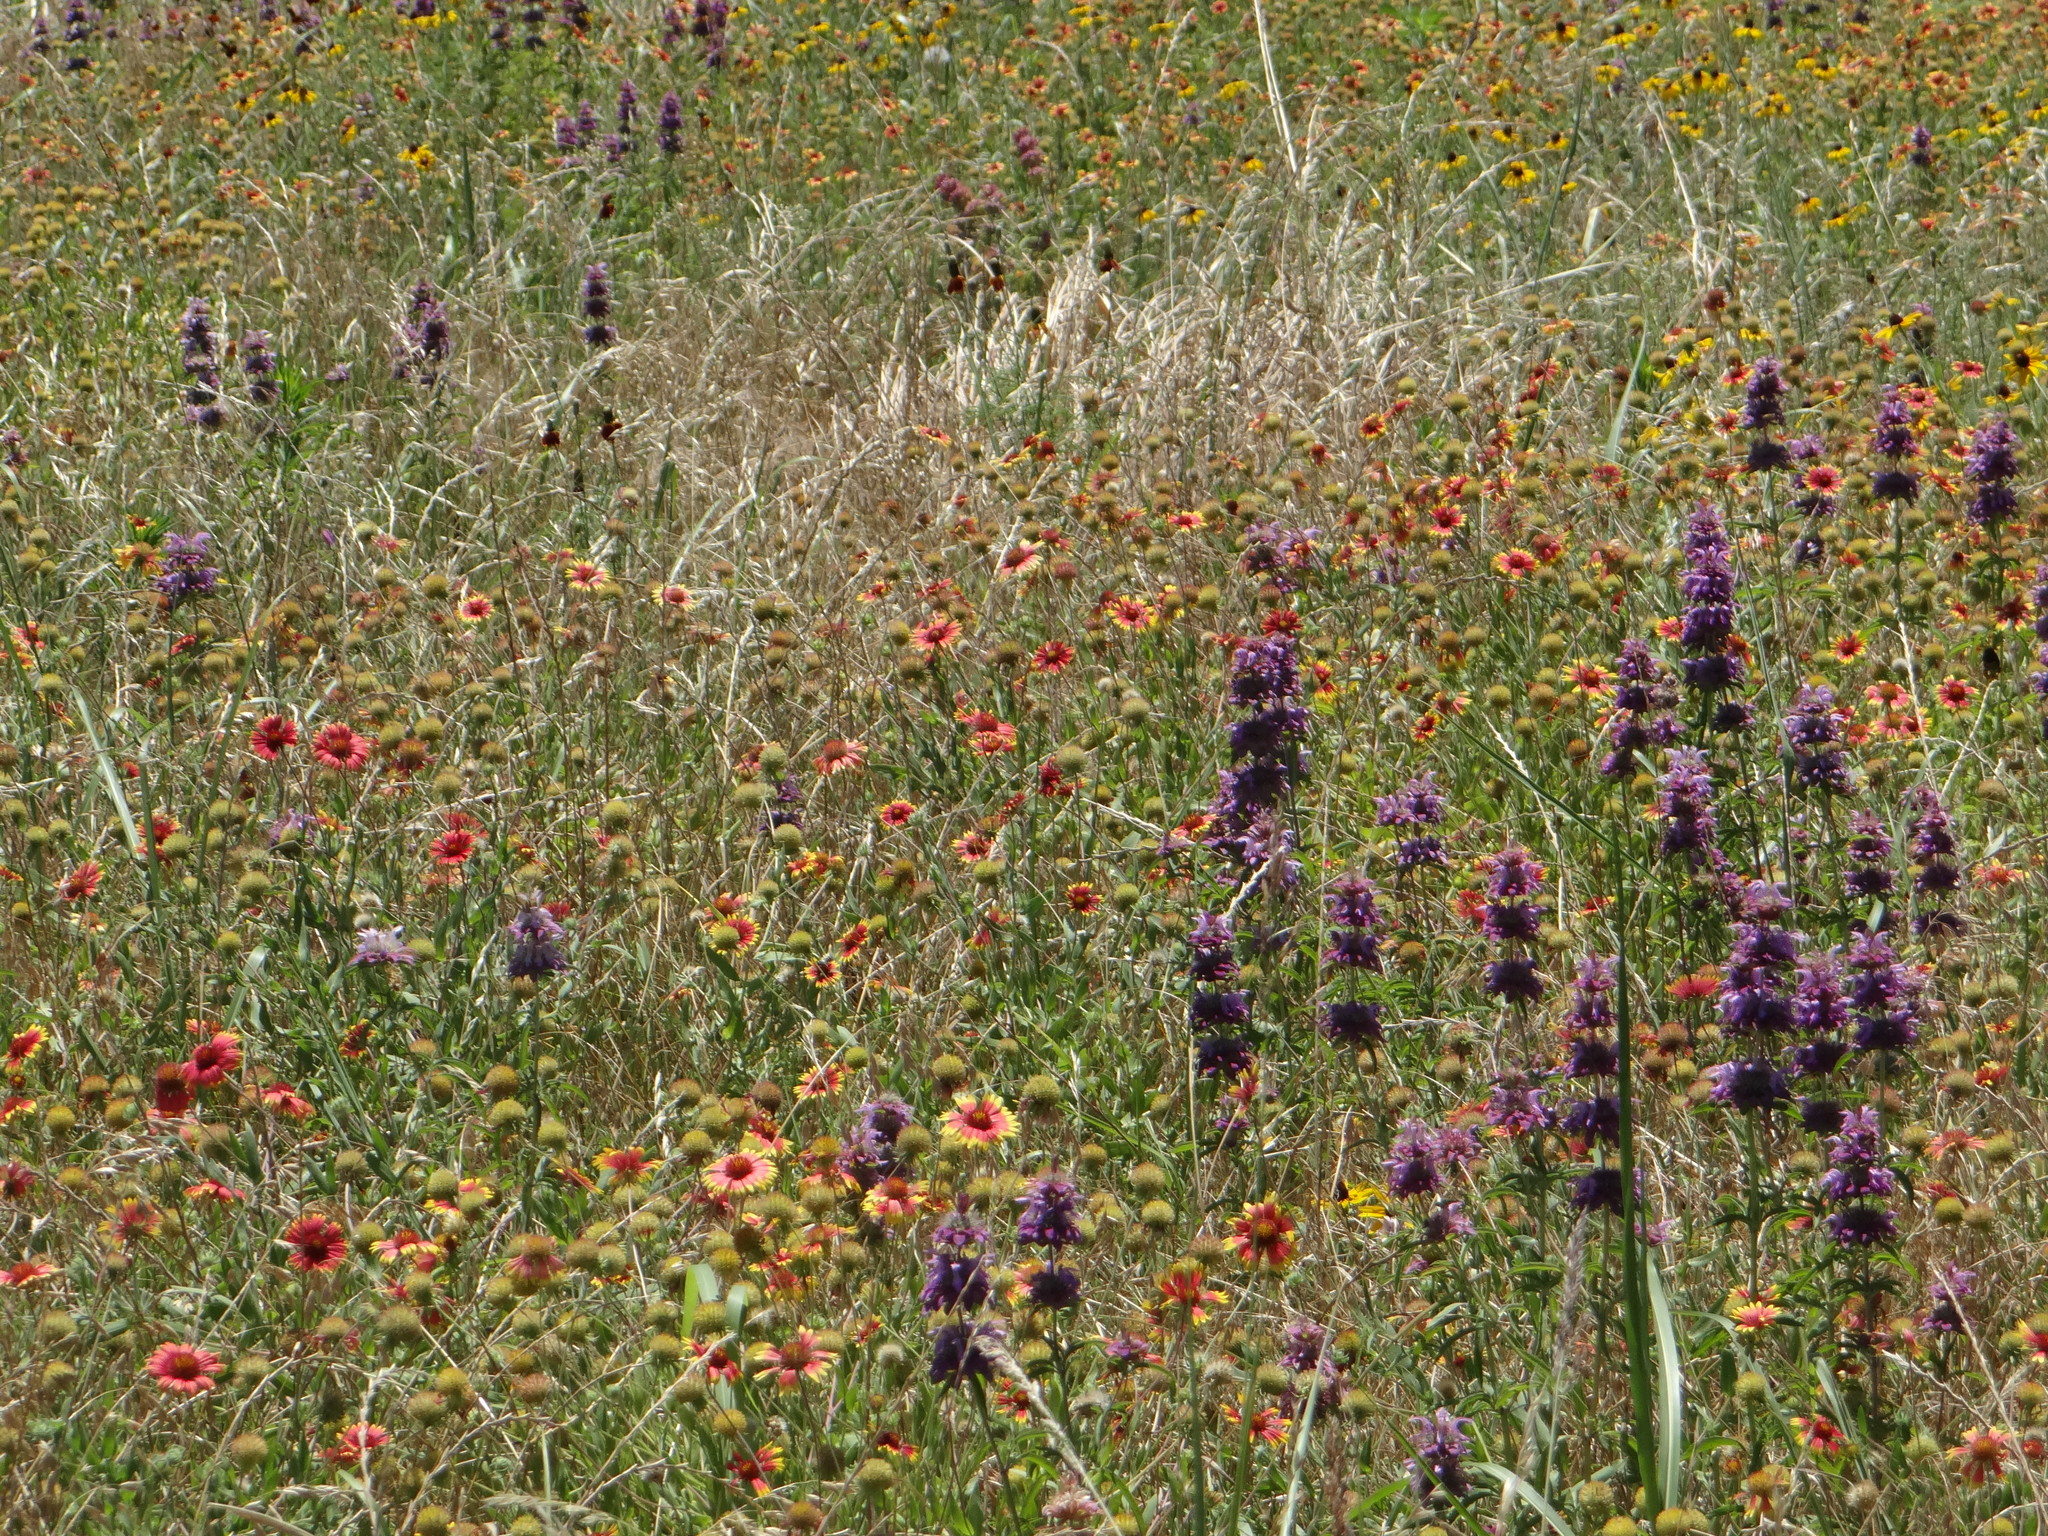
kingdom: Plantae
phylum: Tracheophyta
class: Magnoliopsida
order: Asterales
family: Asteraceae
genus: Gaillardia
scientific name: Gaillardia pulchella
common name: Firewheel
